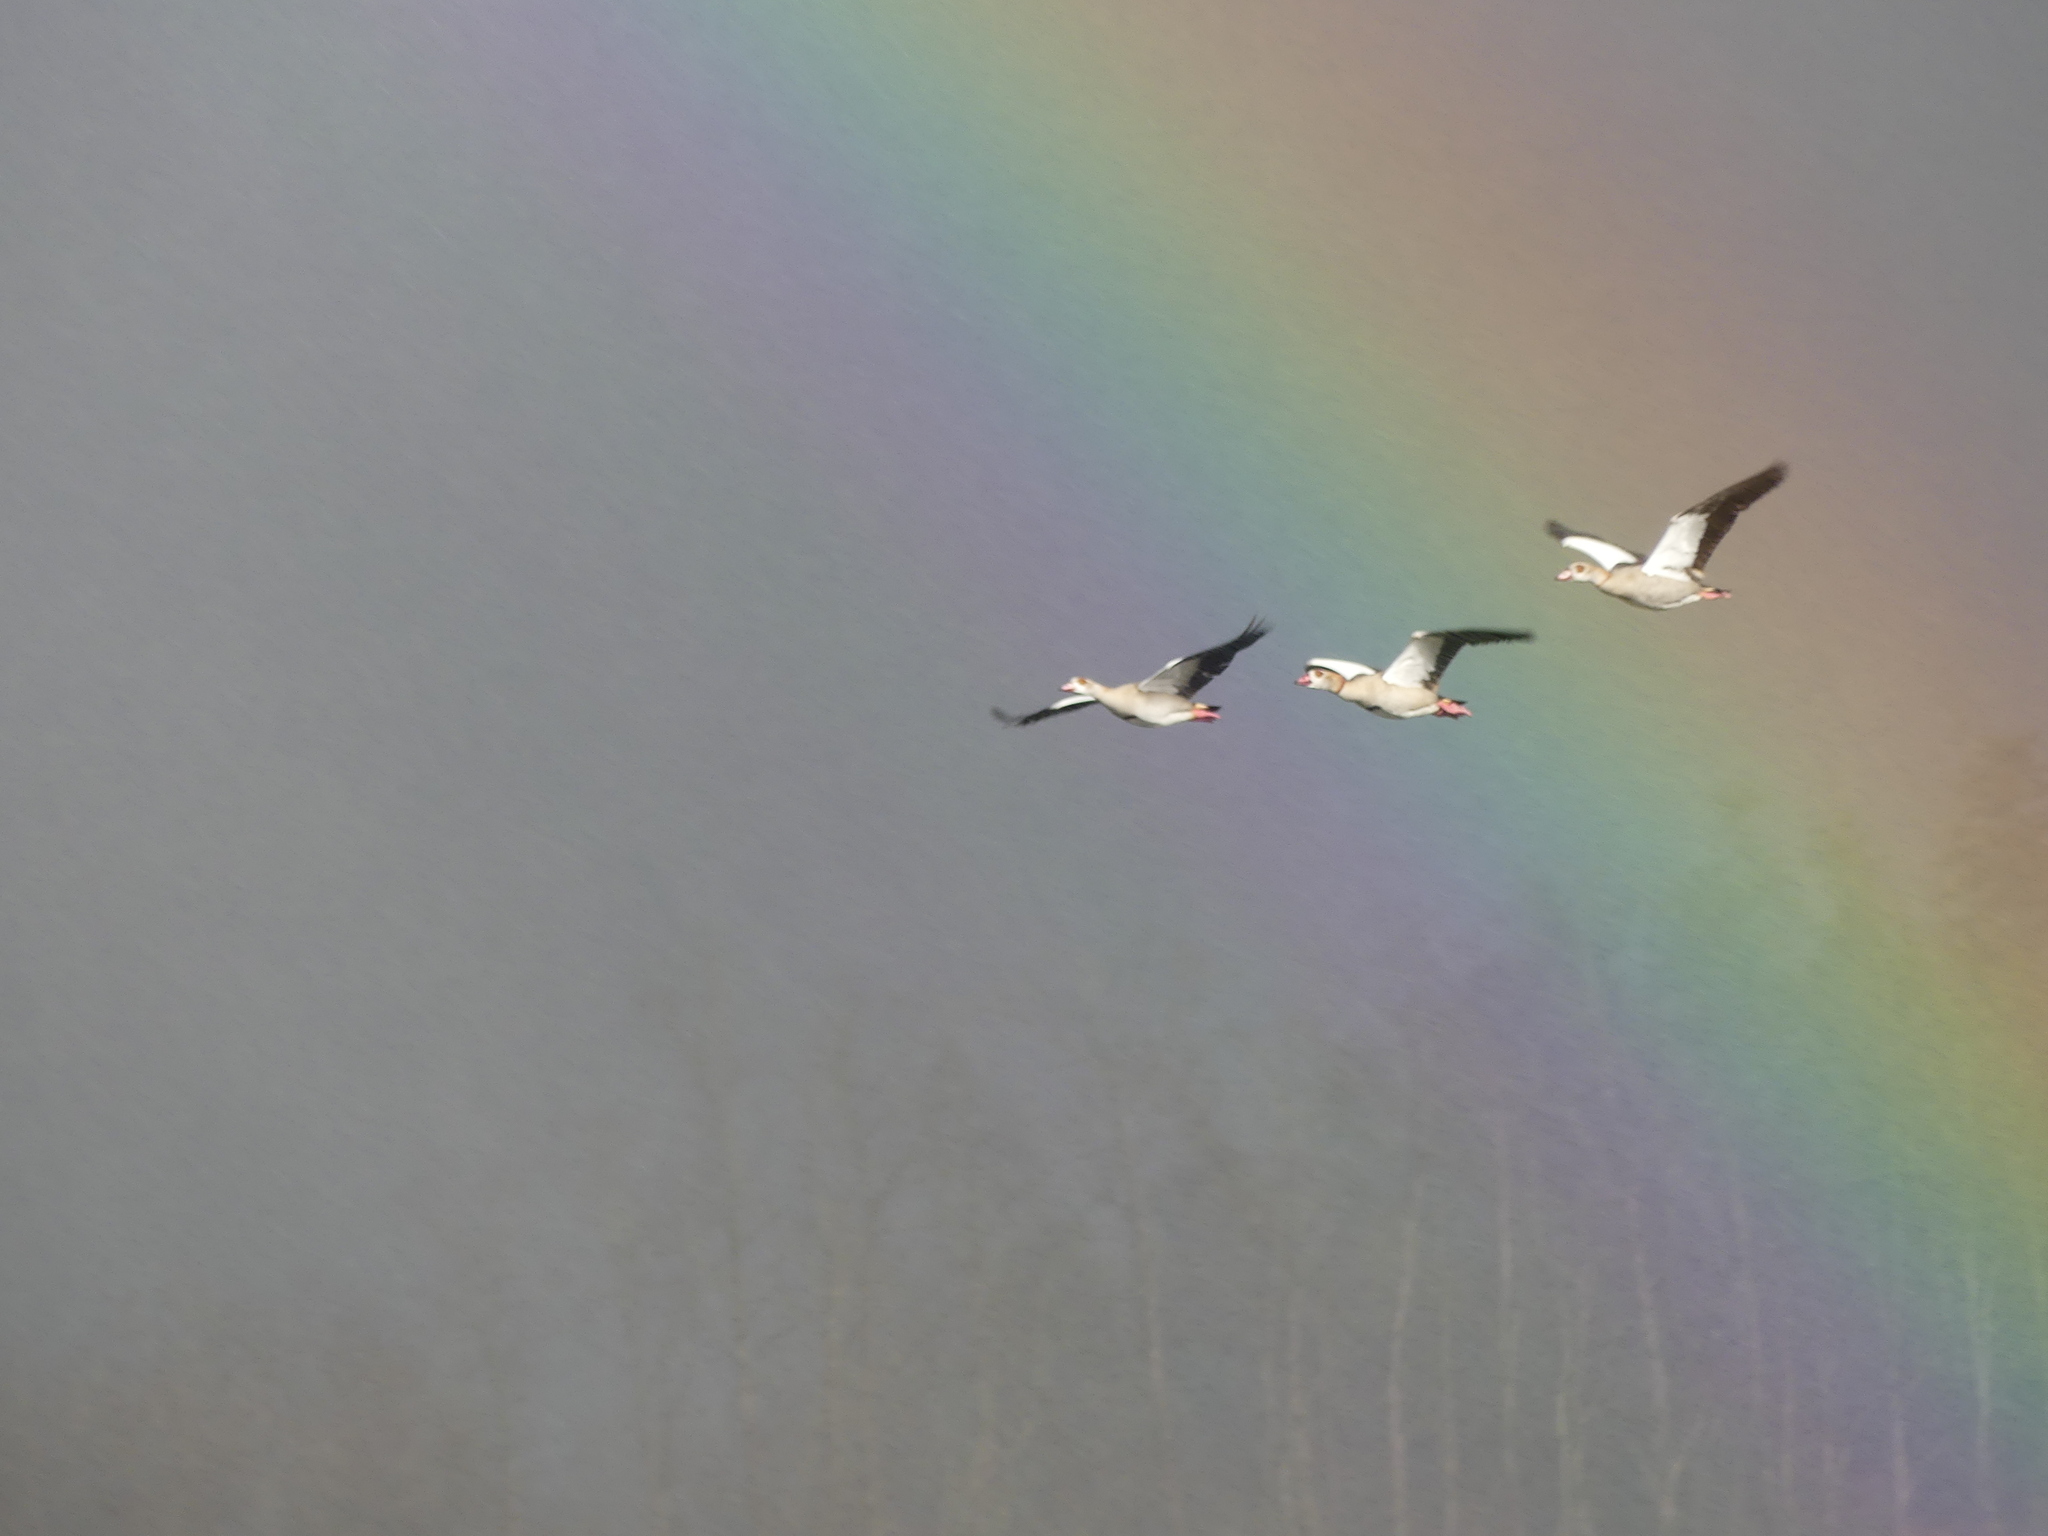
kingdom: Animalia
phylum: Chordata
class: Aves
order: Anseriformes
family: Anatidae
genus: Alopochen
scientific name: Alopochen aegyptiaca
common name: Egyptian goose
